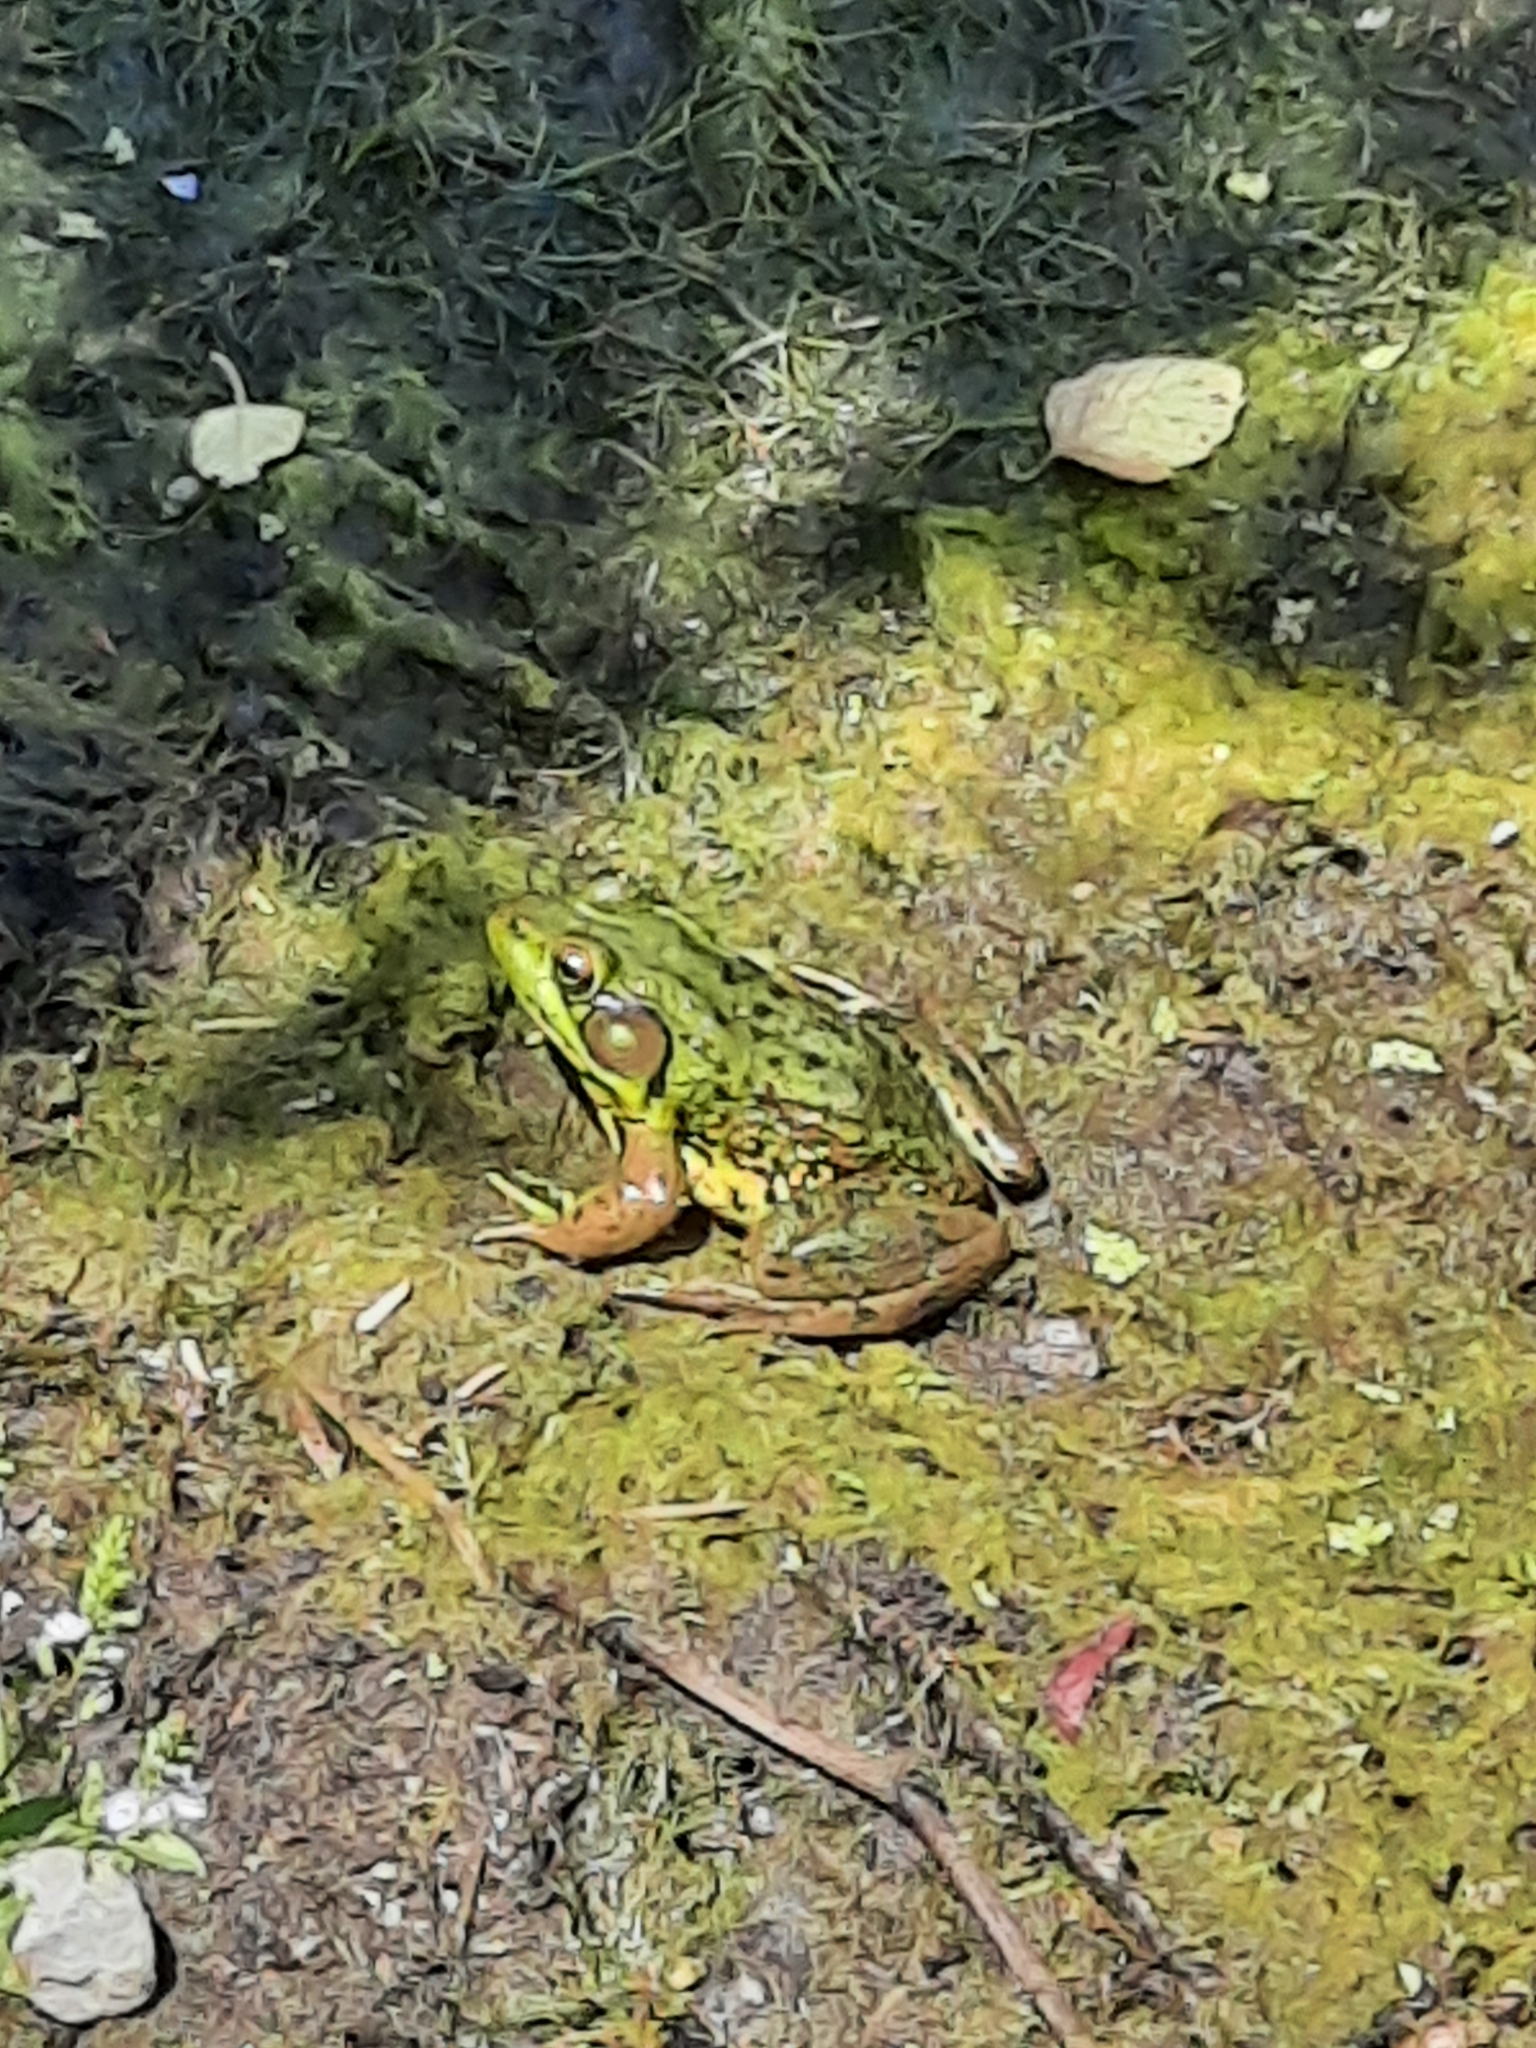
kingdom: Animalia
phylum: Chordata
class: Amphibia
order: Anura
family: Ranidae
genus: Lithobates
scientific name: Lithobates clamitans
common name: Green frog
